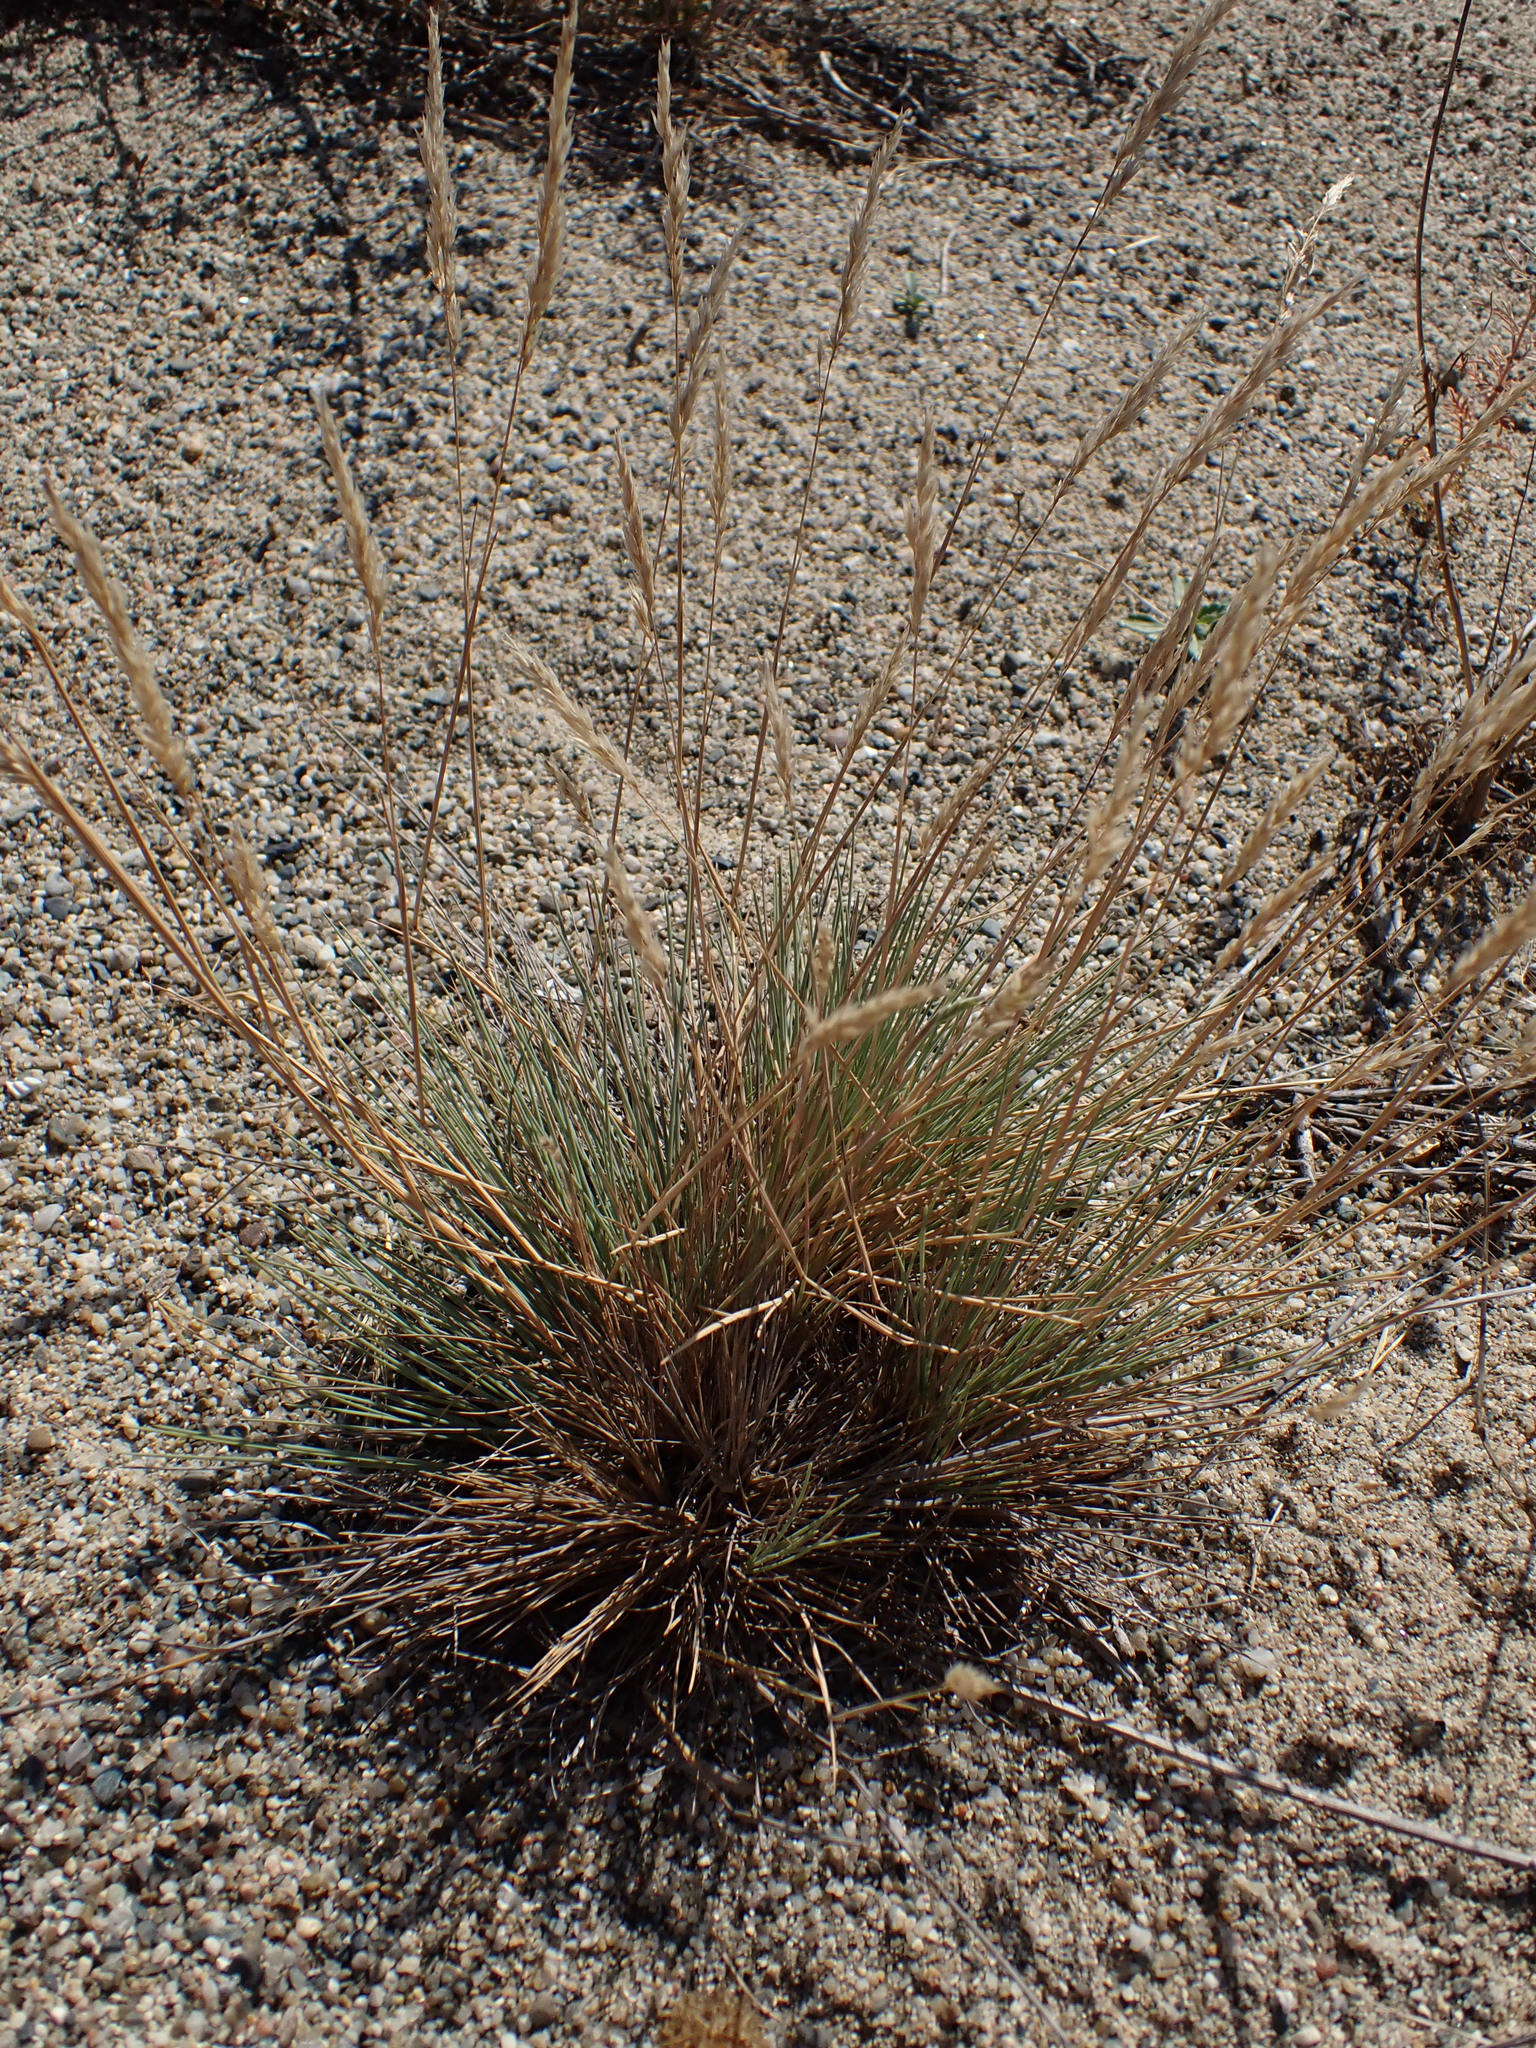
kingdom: Plantae
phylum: Tracheophyta
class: Liliopsida
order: Poales
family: Poaceae
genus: Corynephorus
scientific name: Corynephorus canescens
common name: Grey hair-grass
